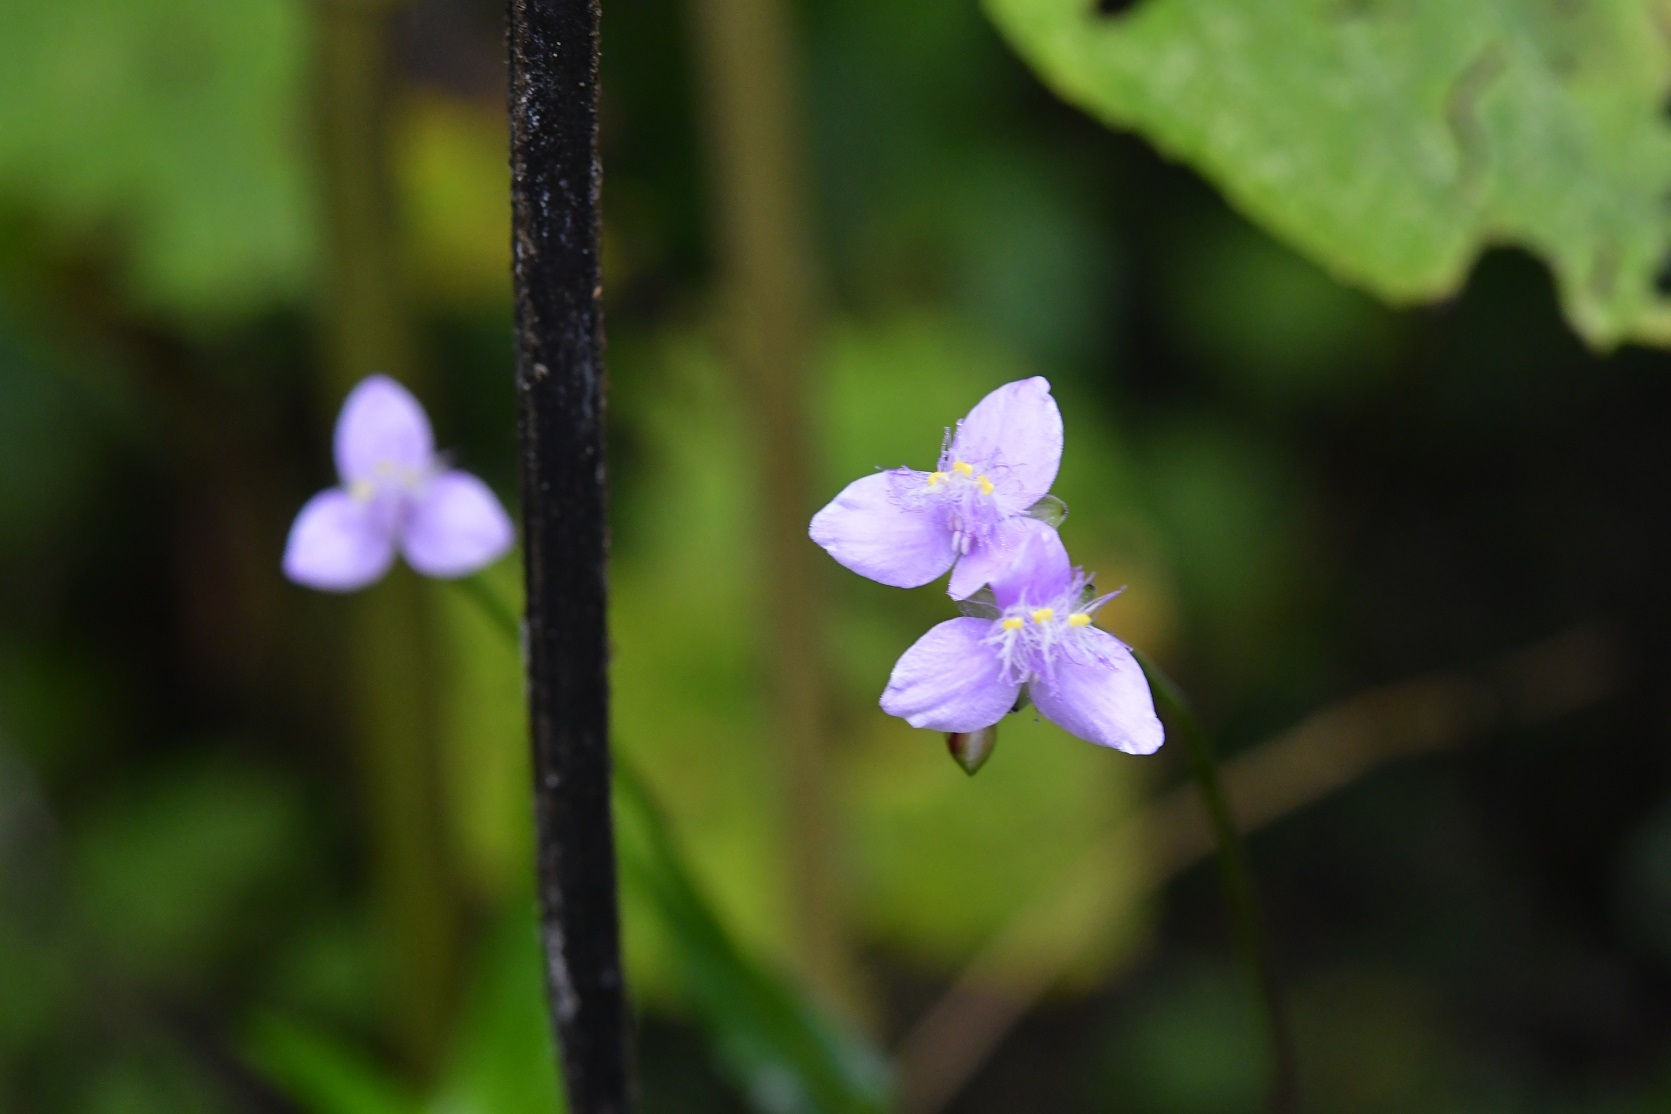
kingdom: Plantae
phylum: Tracheophyta
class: Liliopsida
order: Commelinales
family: Commelinaceae
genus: Callisia
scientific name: Callisia amplexicaulis
